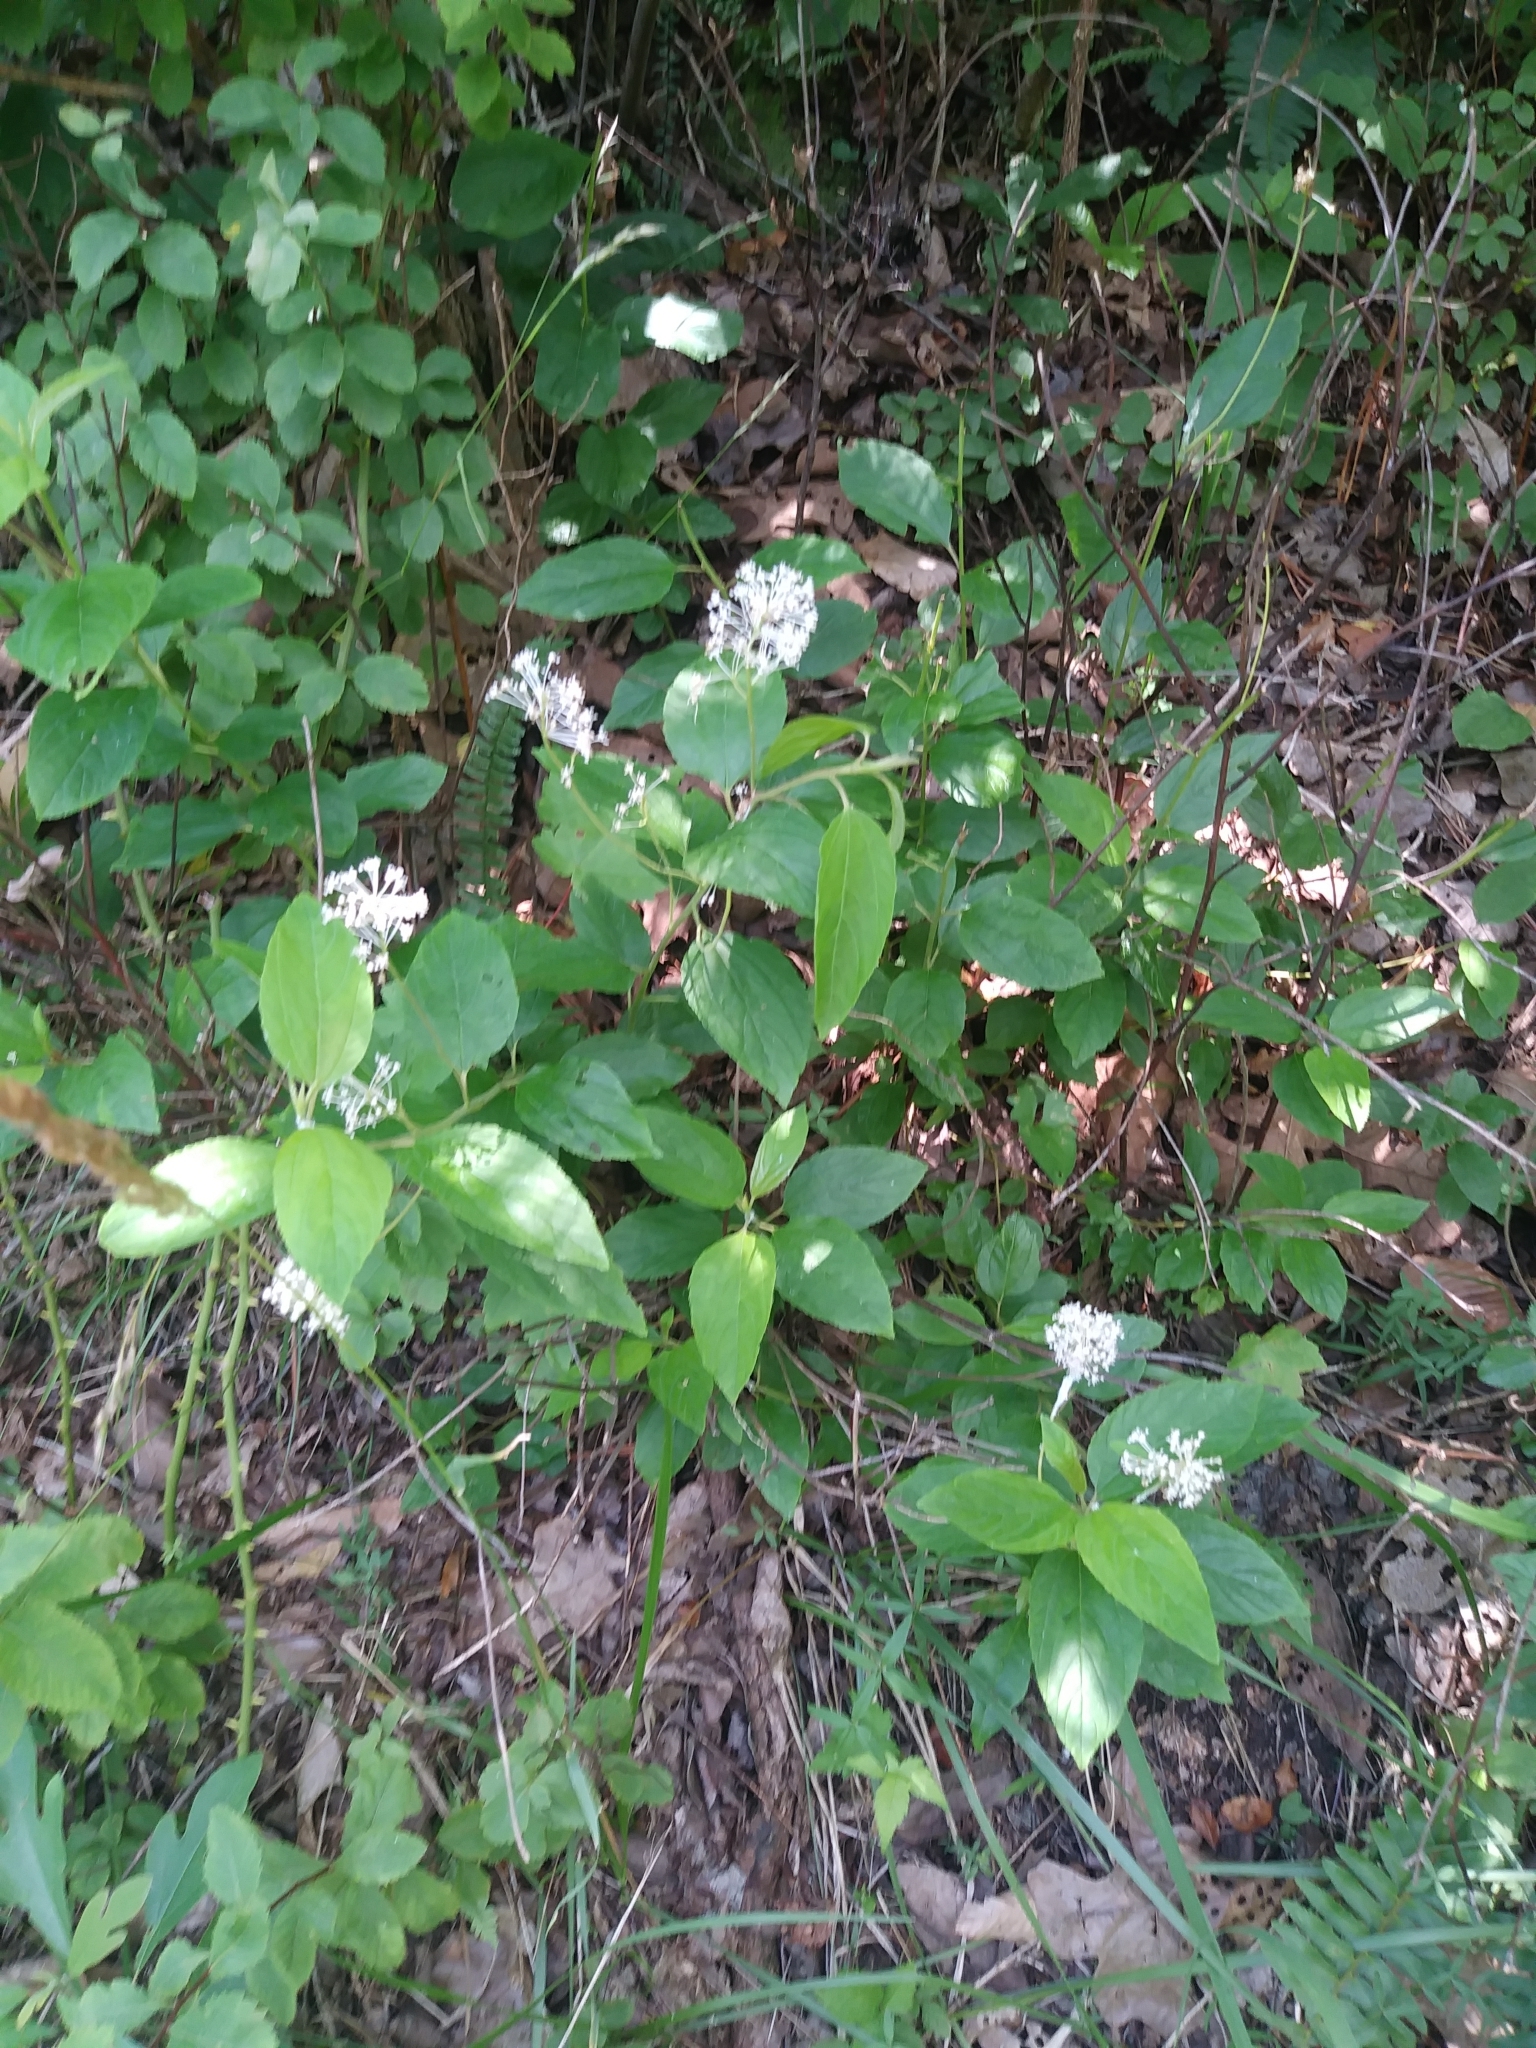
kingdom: Plantae
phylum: Tracheophyta
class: Magnoliopsida
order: Rosales
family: Rhamnaceae
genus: Ceanothus
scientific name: Ceanothus americanus
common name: Redroot
